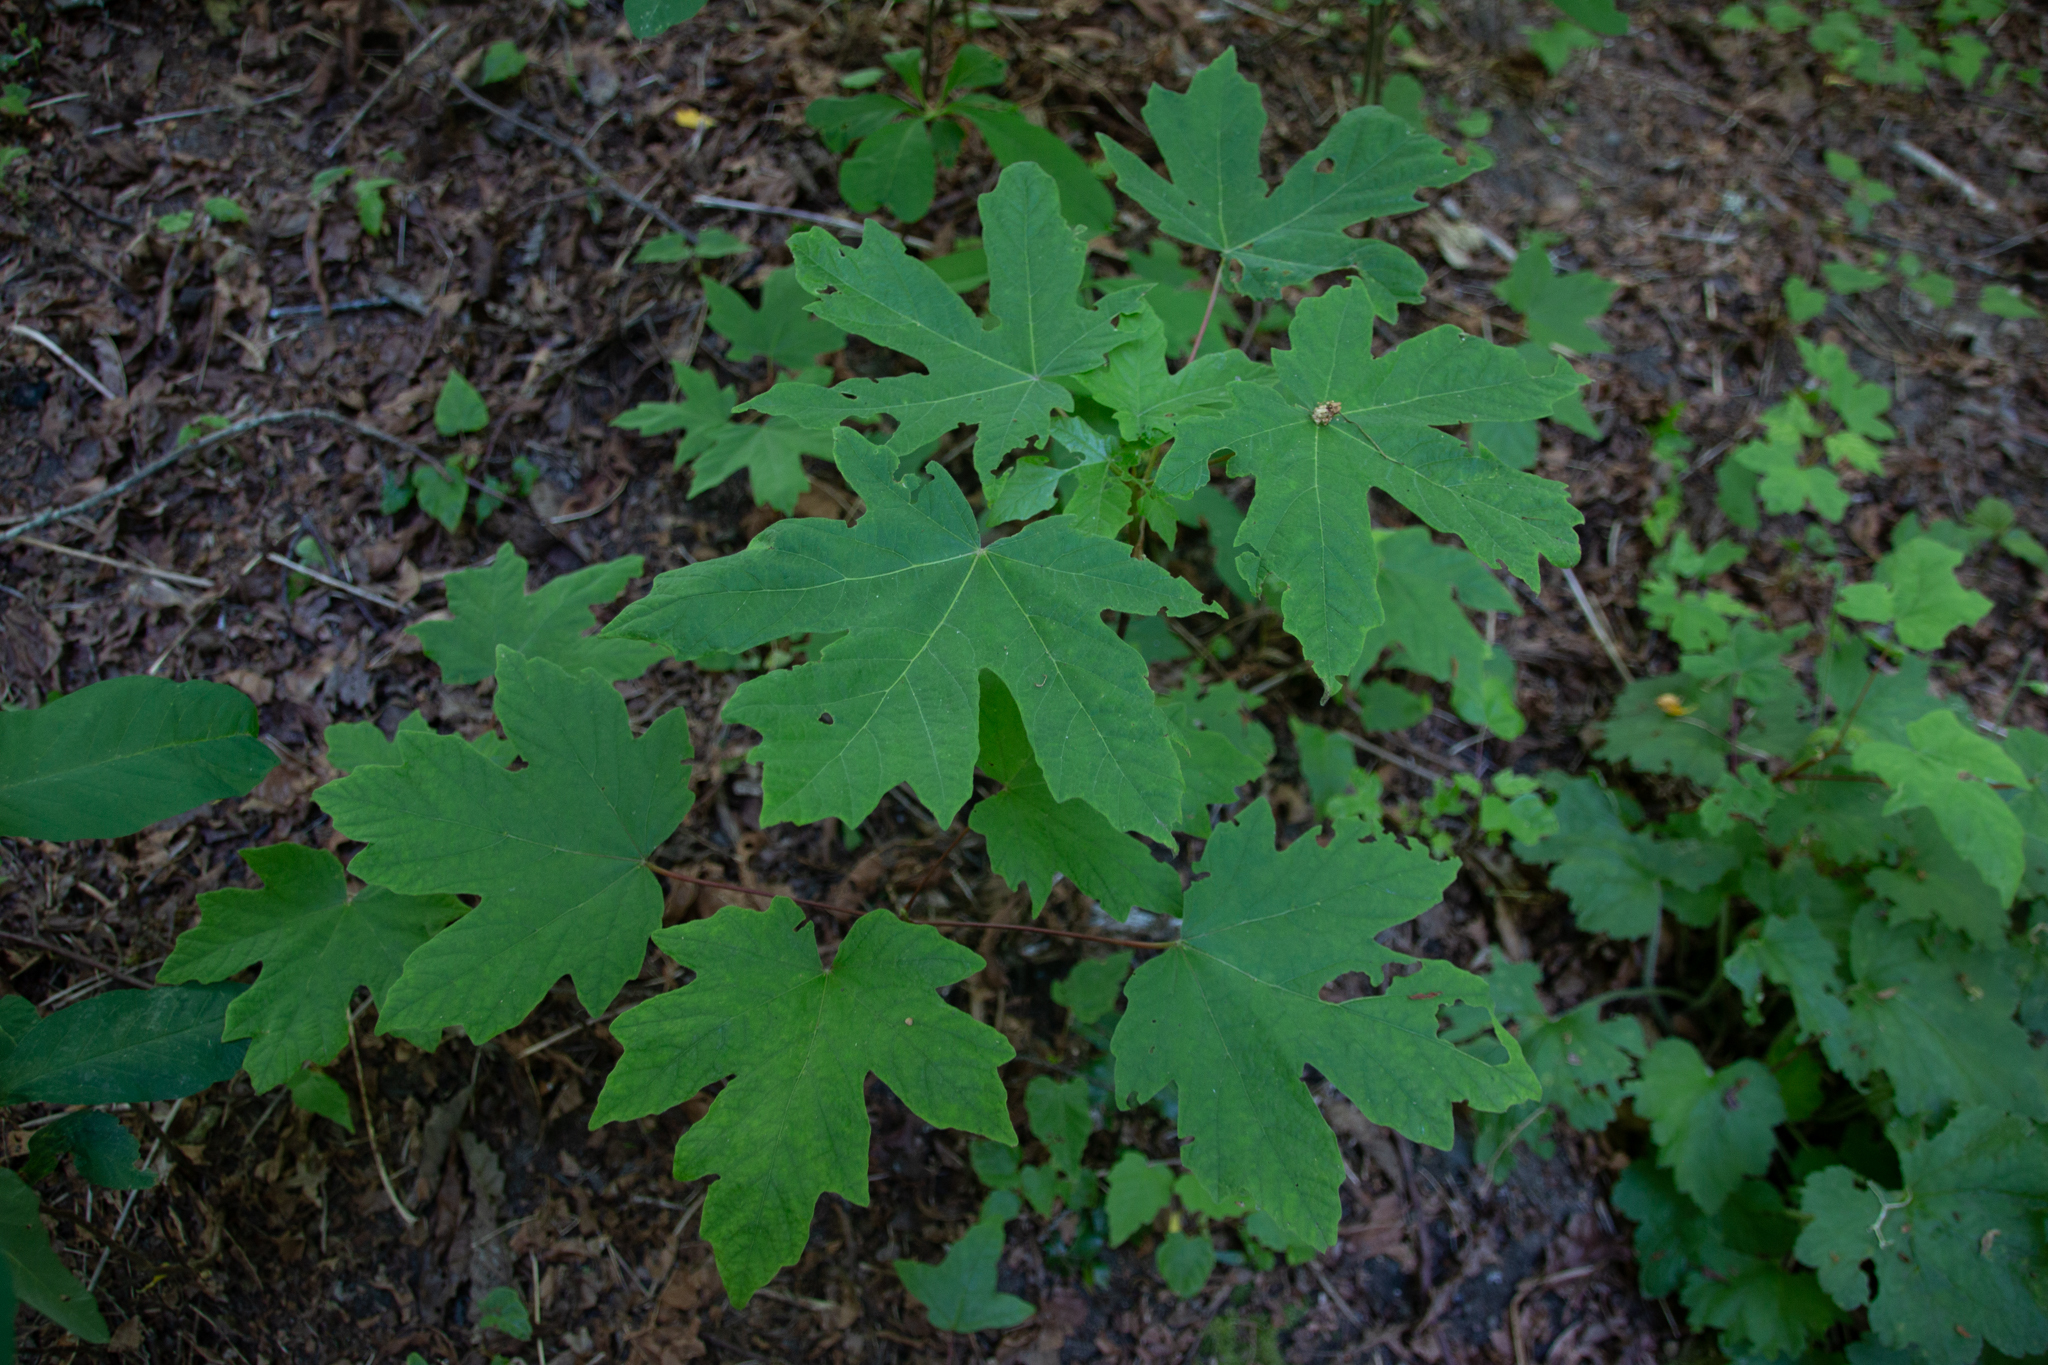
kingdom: Plantae
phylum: Tracheophyta
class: Magnoliopsida
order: Sapindales
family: Sapindaceae
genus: Acer
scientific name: Acer macrophyllum
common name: Oregon maple
